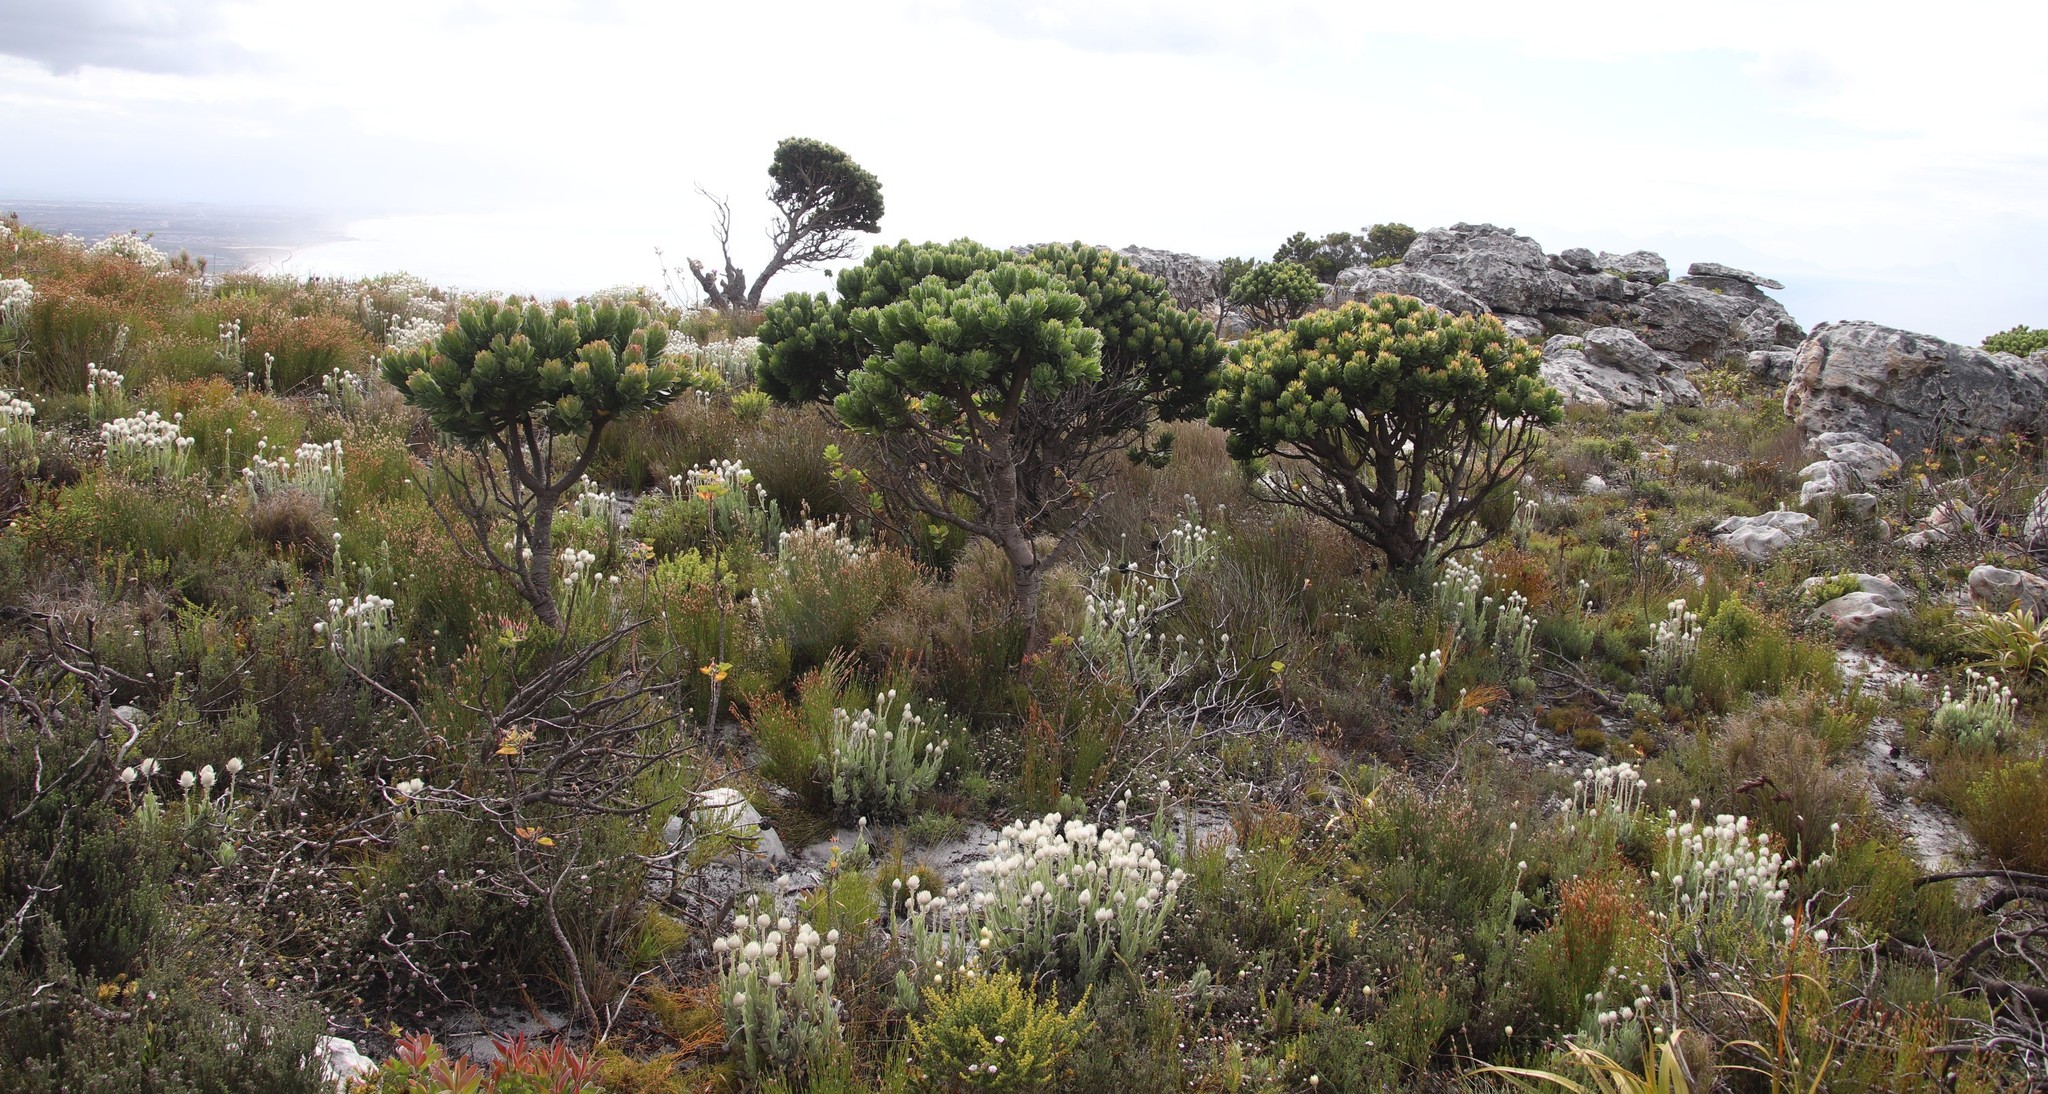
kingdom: Plantae
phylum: Tracheophyta
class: Magnoliopsida
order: Proteales
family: Proteaceae
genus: Mimetes
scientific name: Mimetes fimbriifolius
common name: Fringed bottlebrush
